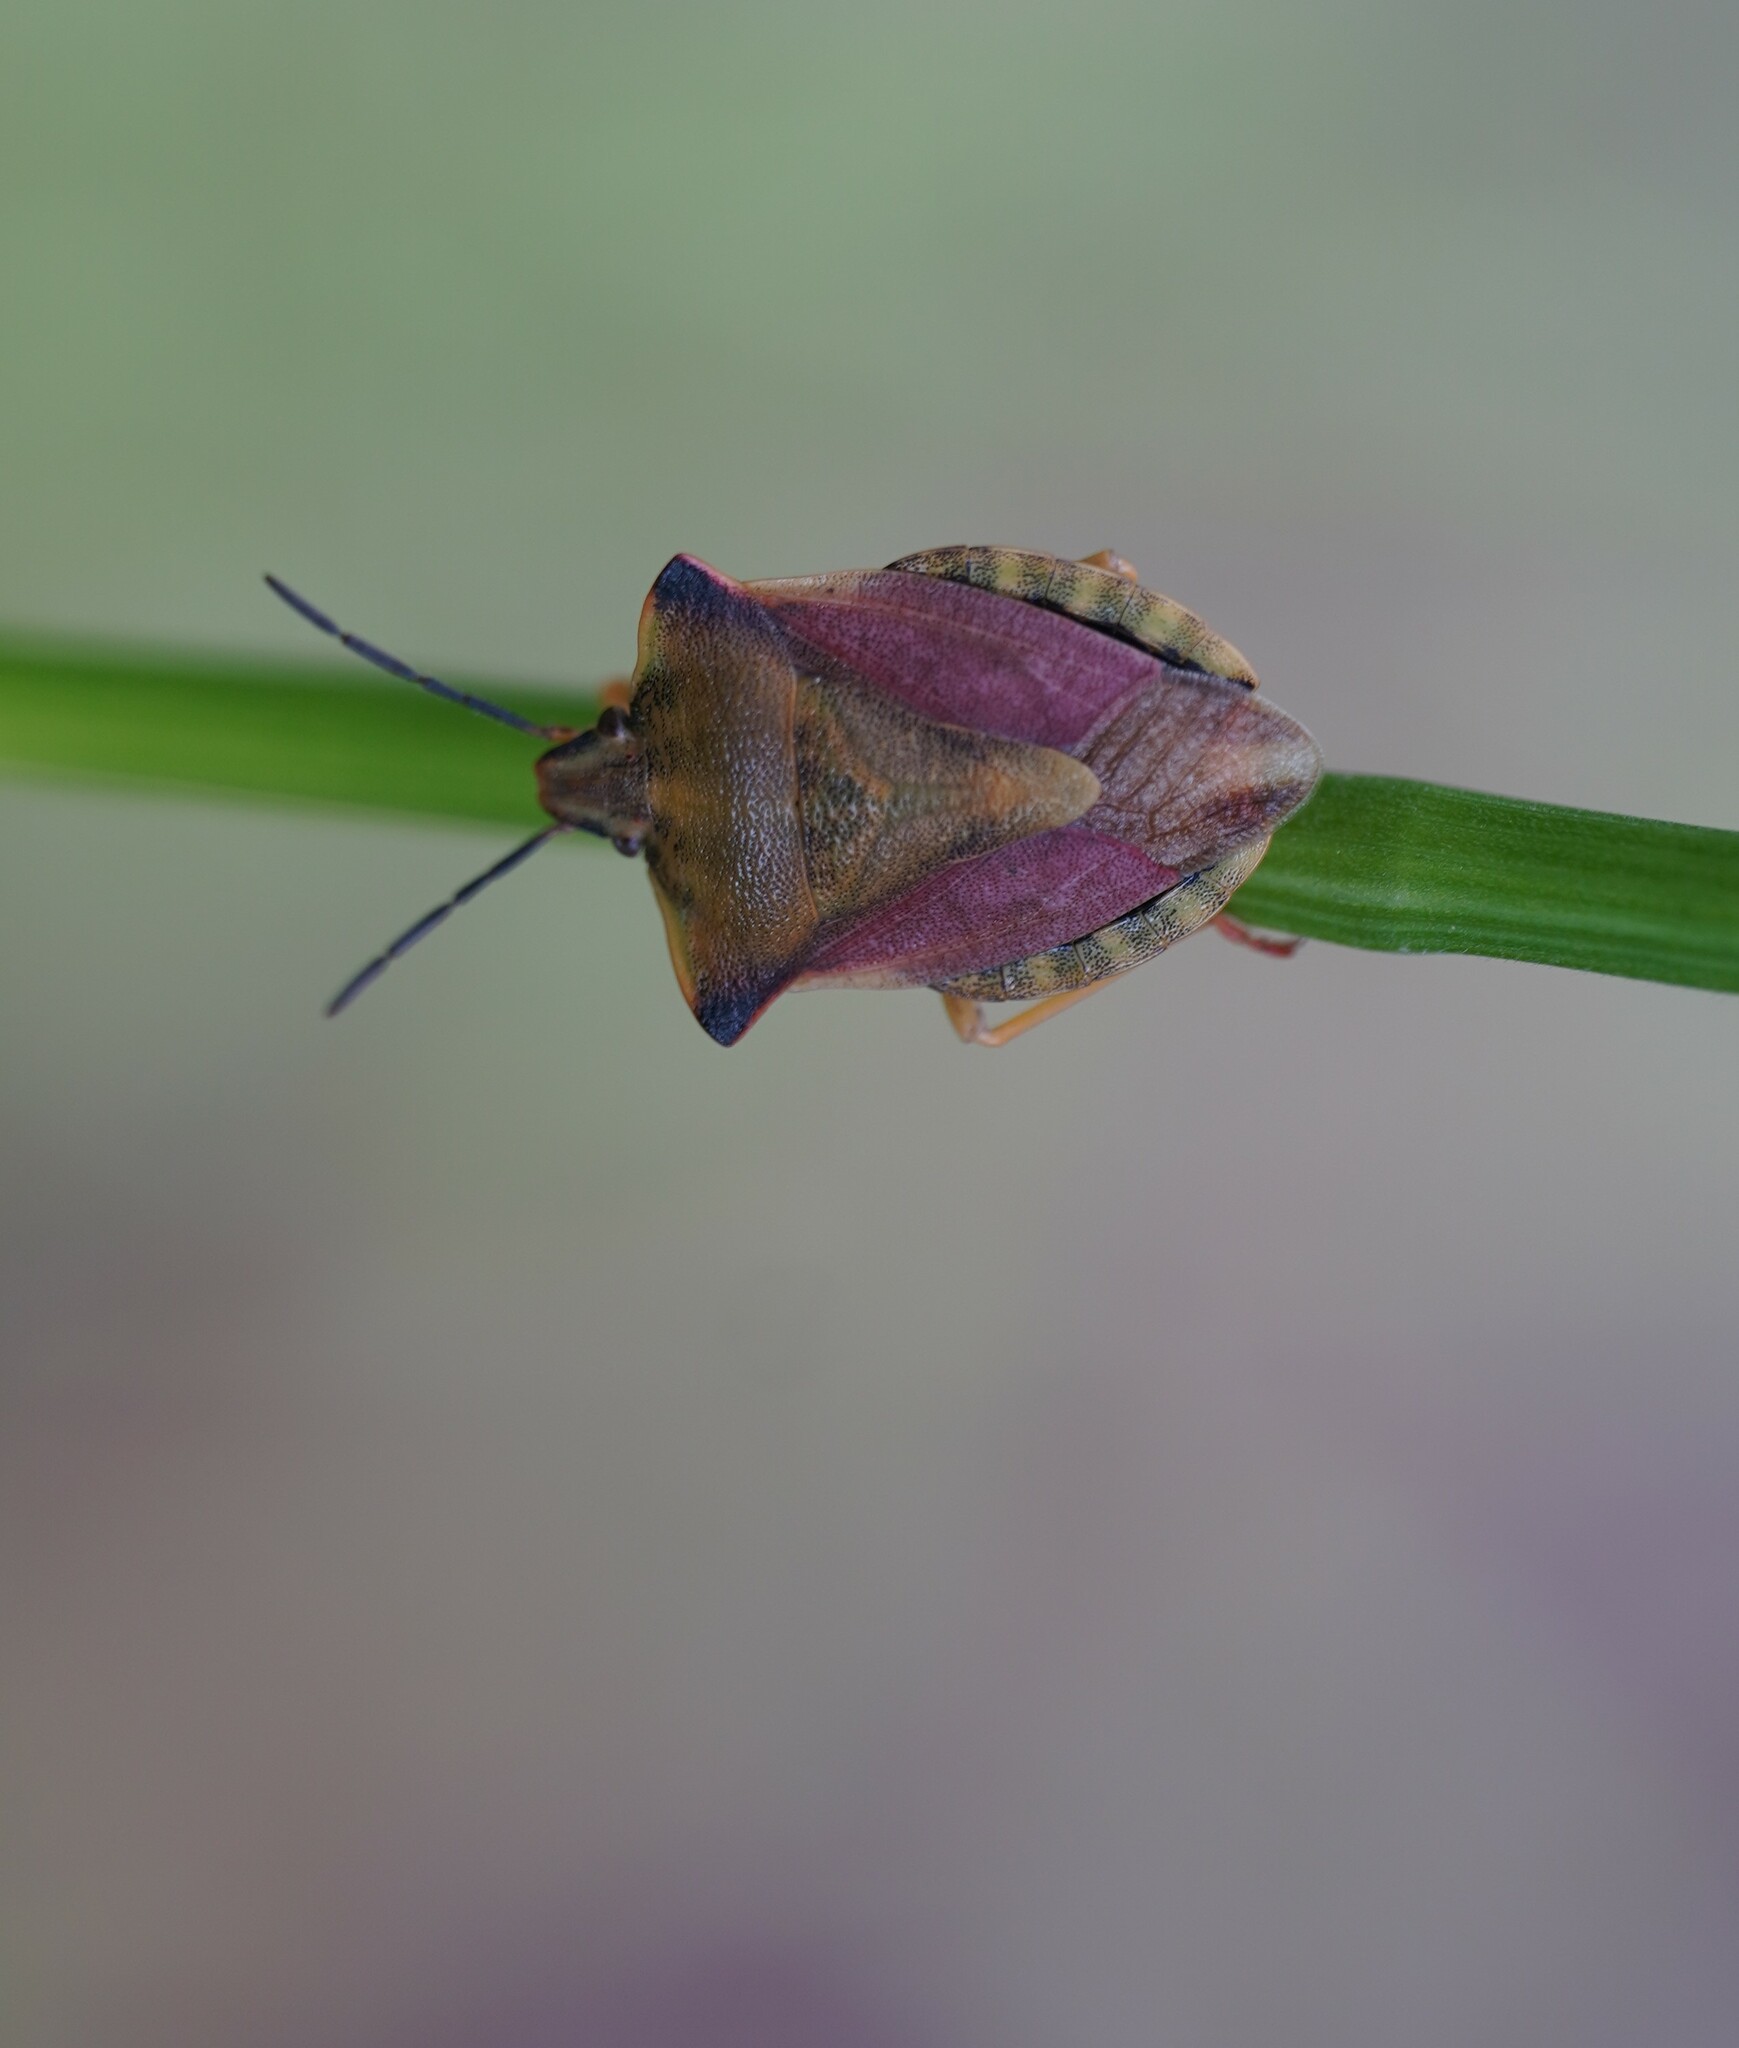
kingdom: Animalia
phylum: Arthropoda
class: Insecta
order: Hemiptera
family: Pentatomidae
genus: Carpocoris
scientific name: Carpocoris fuscispinus
